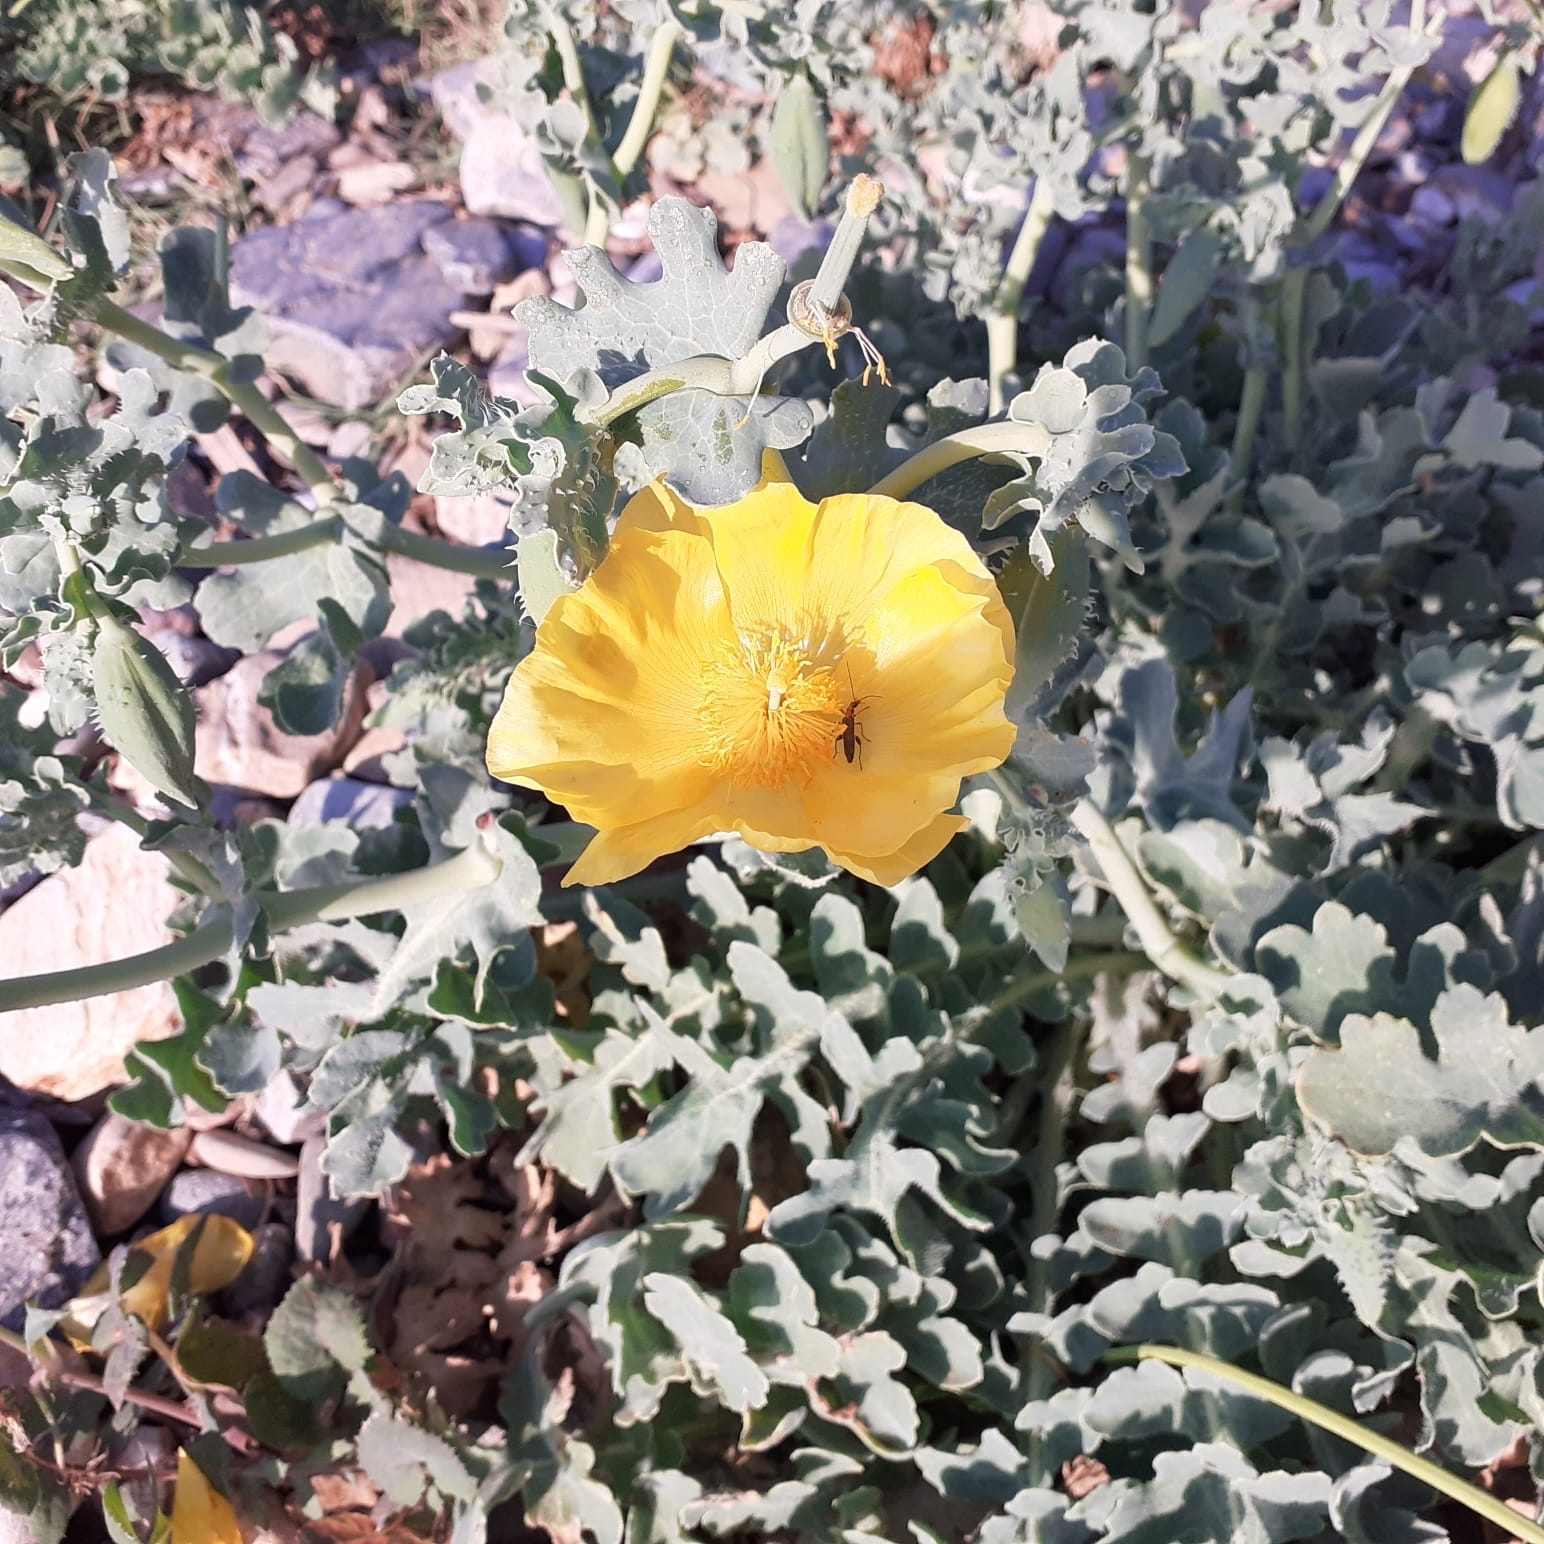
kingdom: Plantae
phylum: Tracheophyta
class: Magnoliopsida
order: Ranunculales
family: Papaveraceae
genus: Glaucium
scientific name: Glaucium flavum
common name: Yellow horned-poppy
